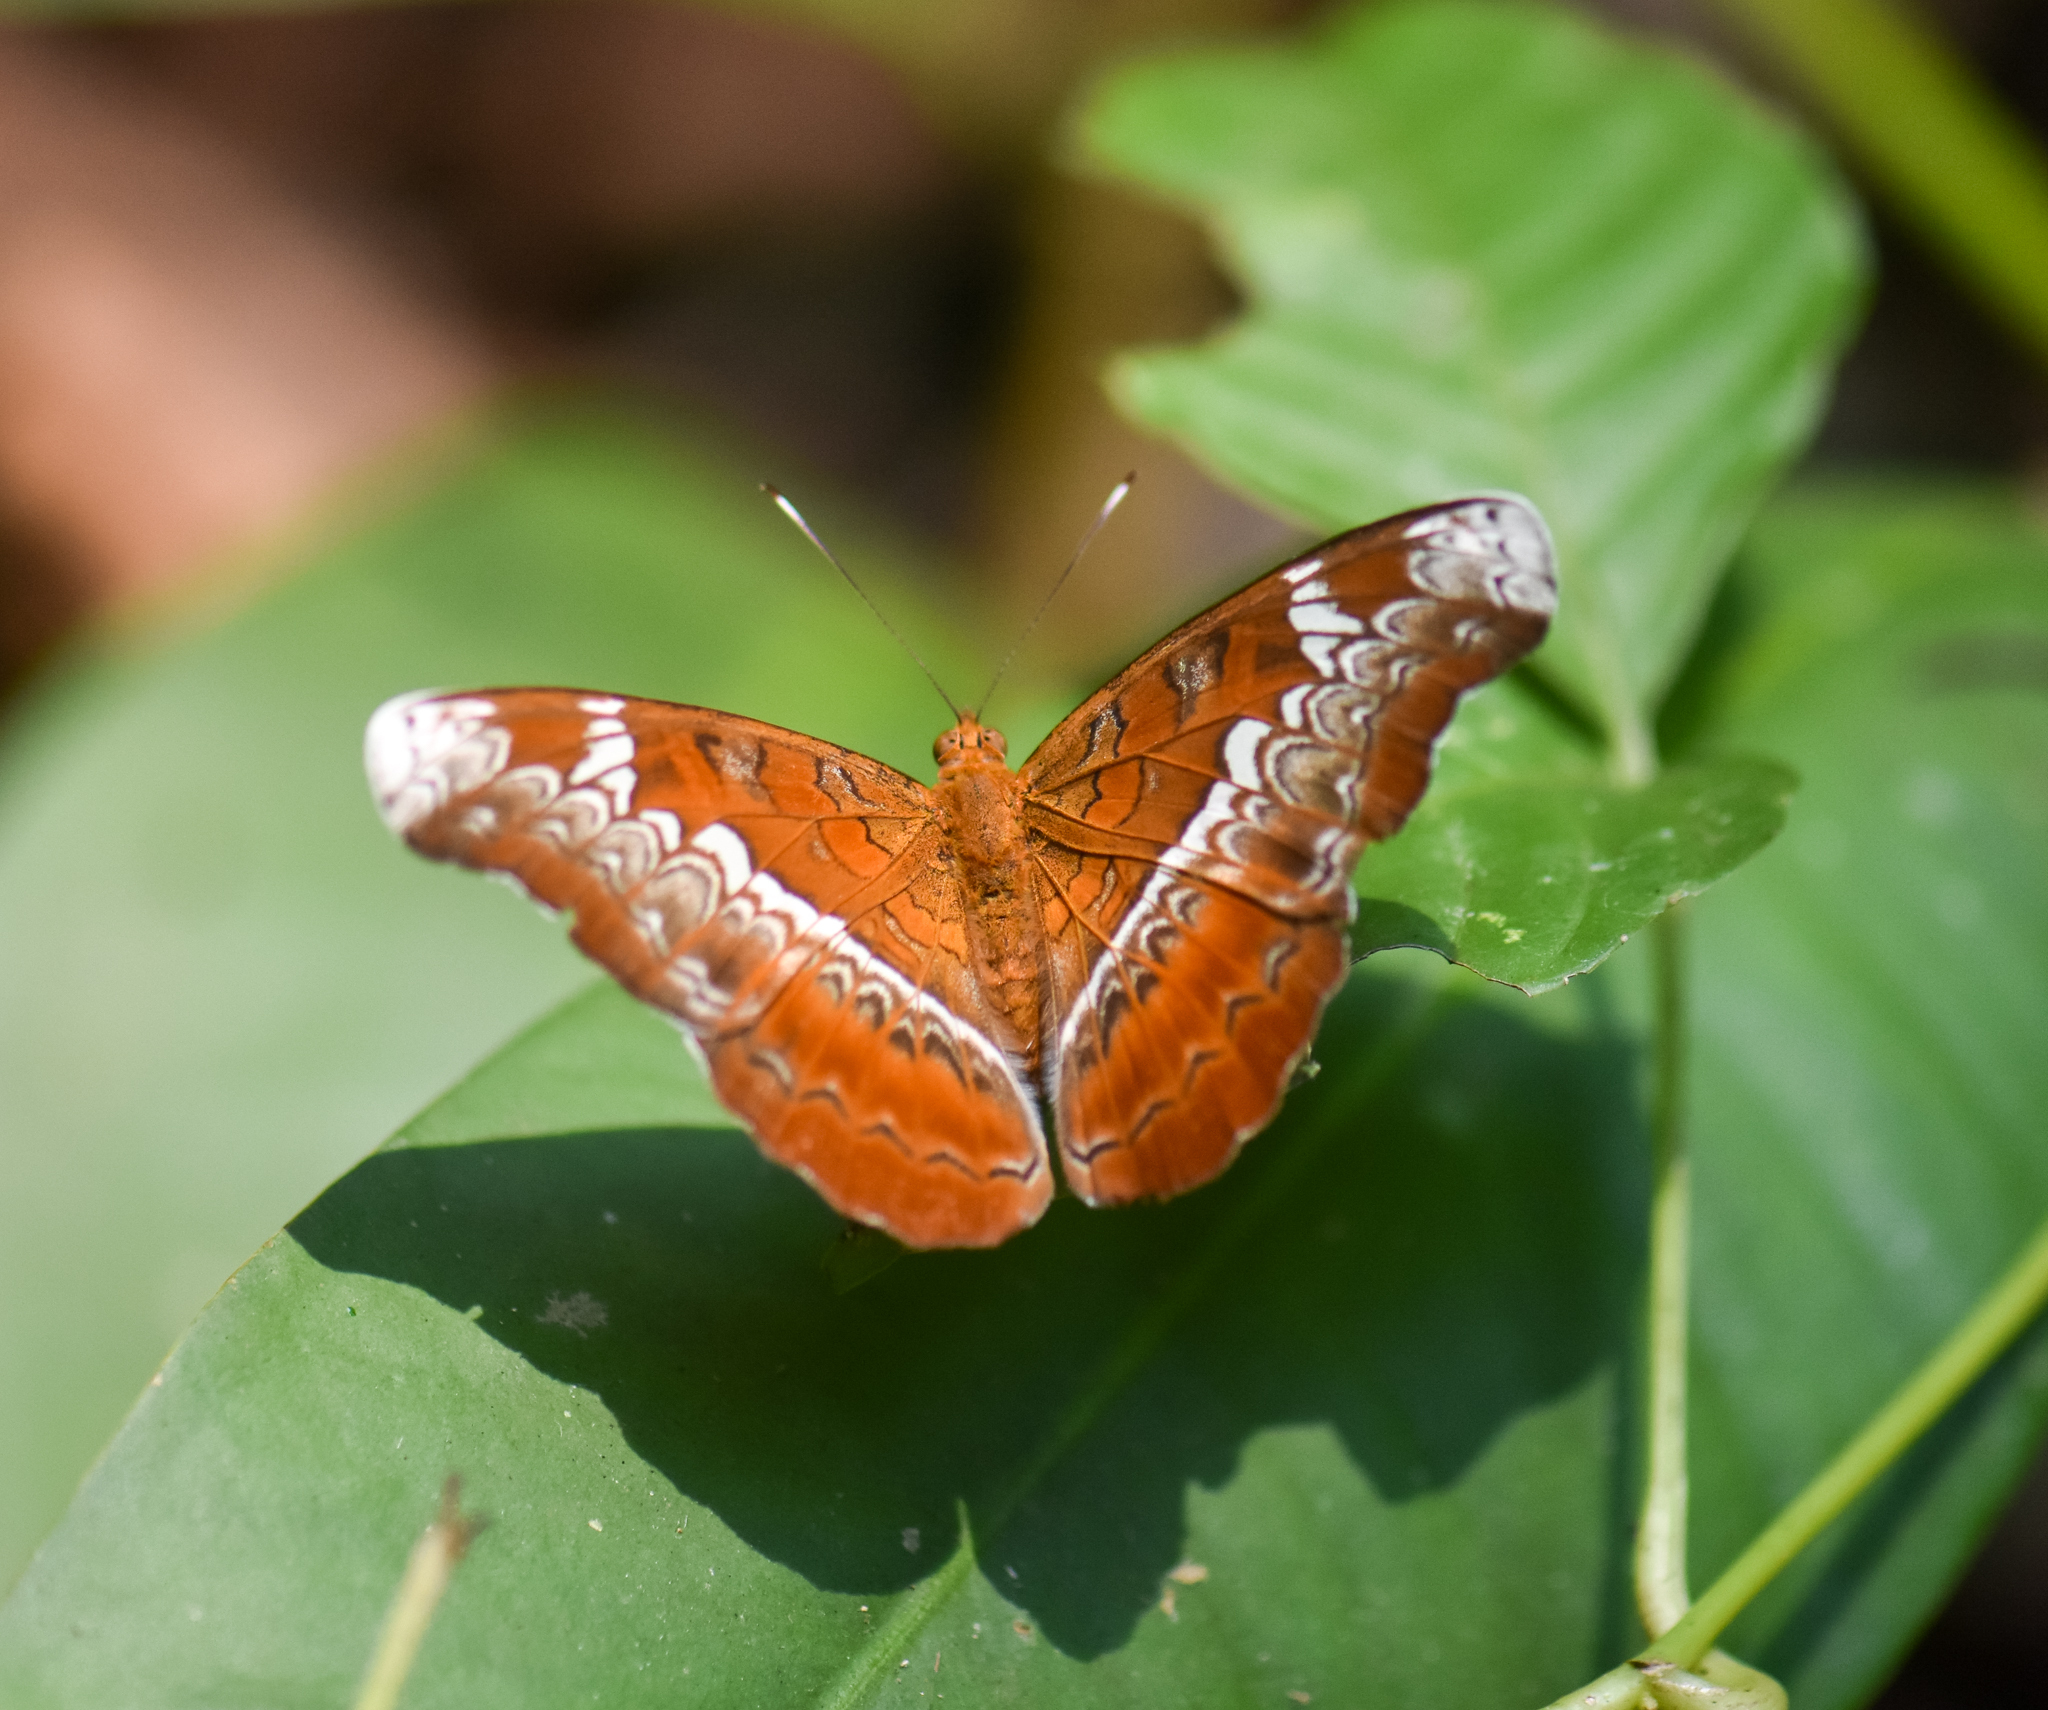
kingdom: Animalia
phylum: Arthropoda
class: Insecta
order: Lepidoptera
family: Nymphalidae
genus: Lebadea
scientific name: Lebadea martha
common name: Knight
